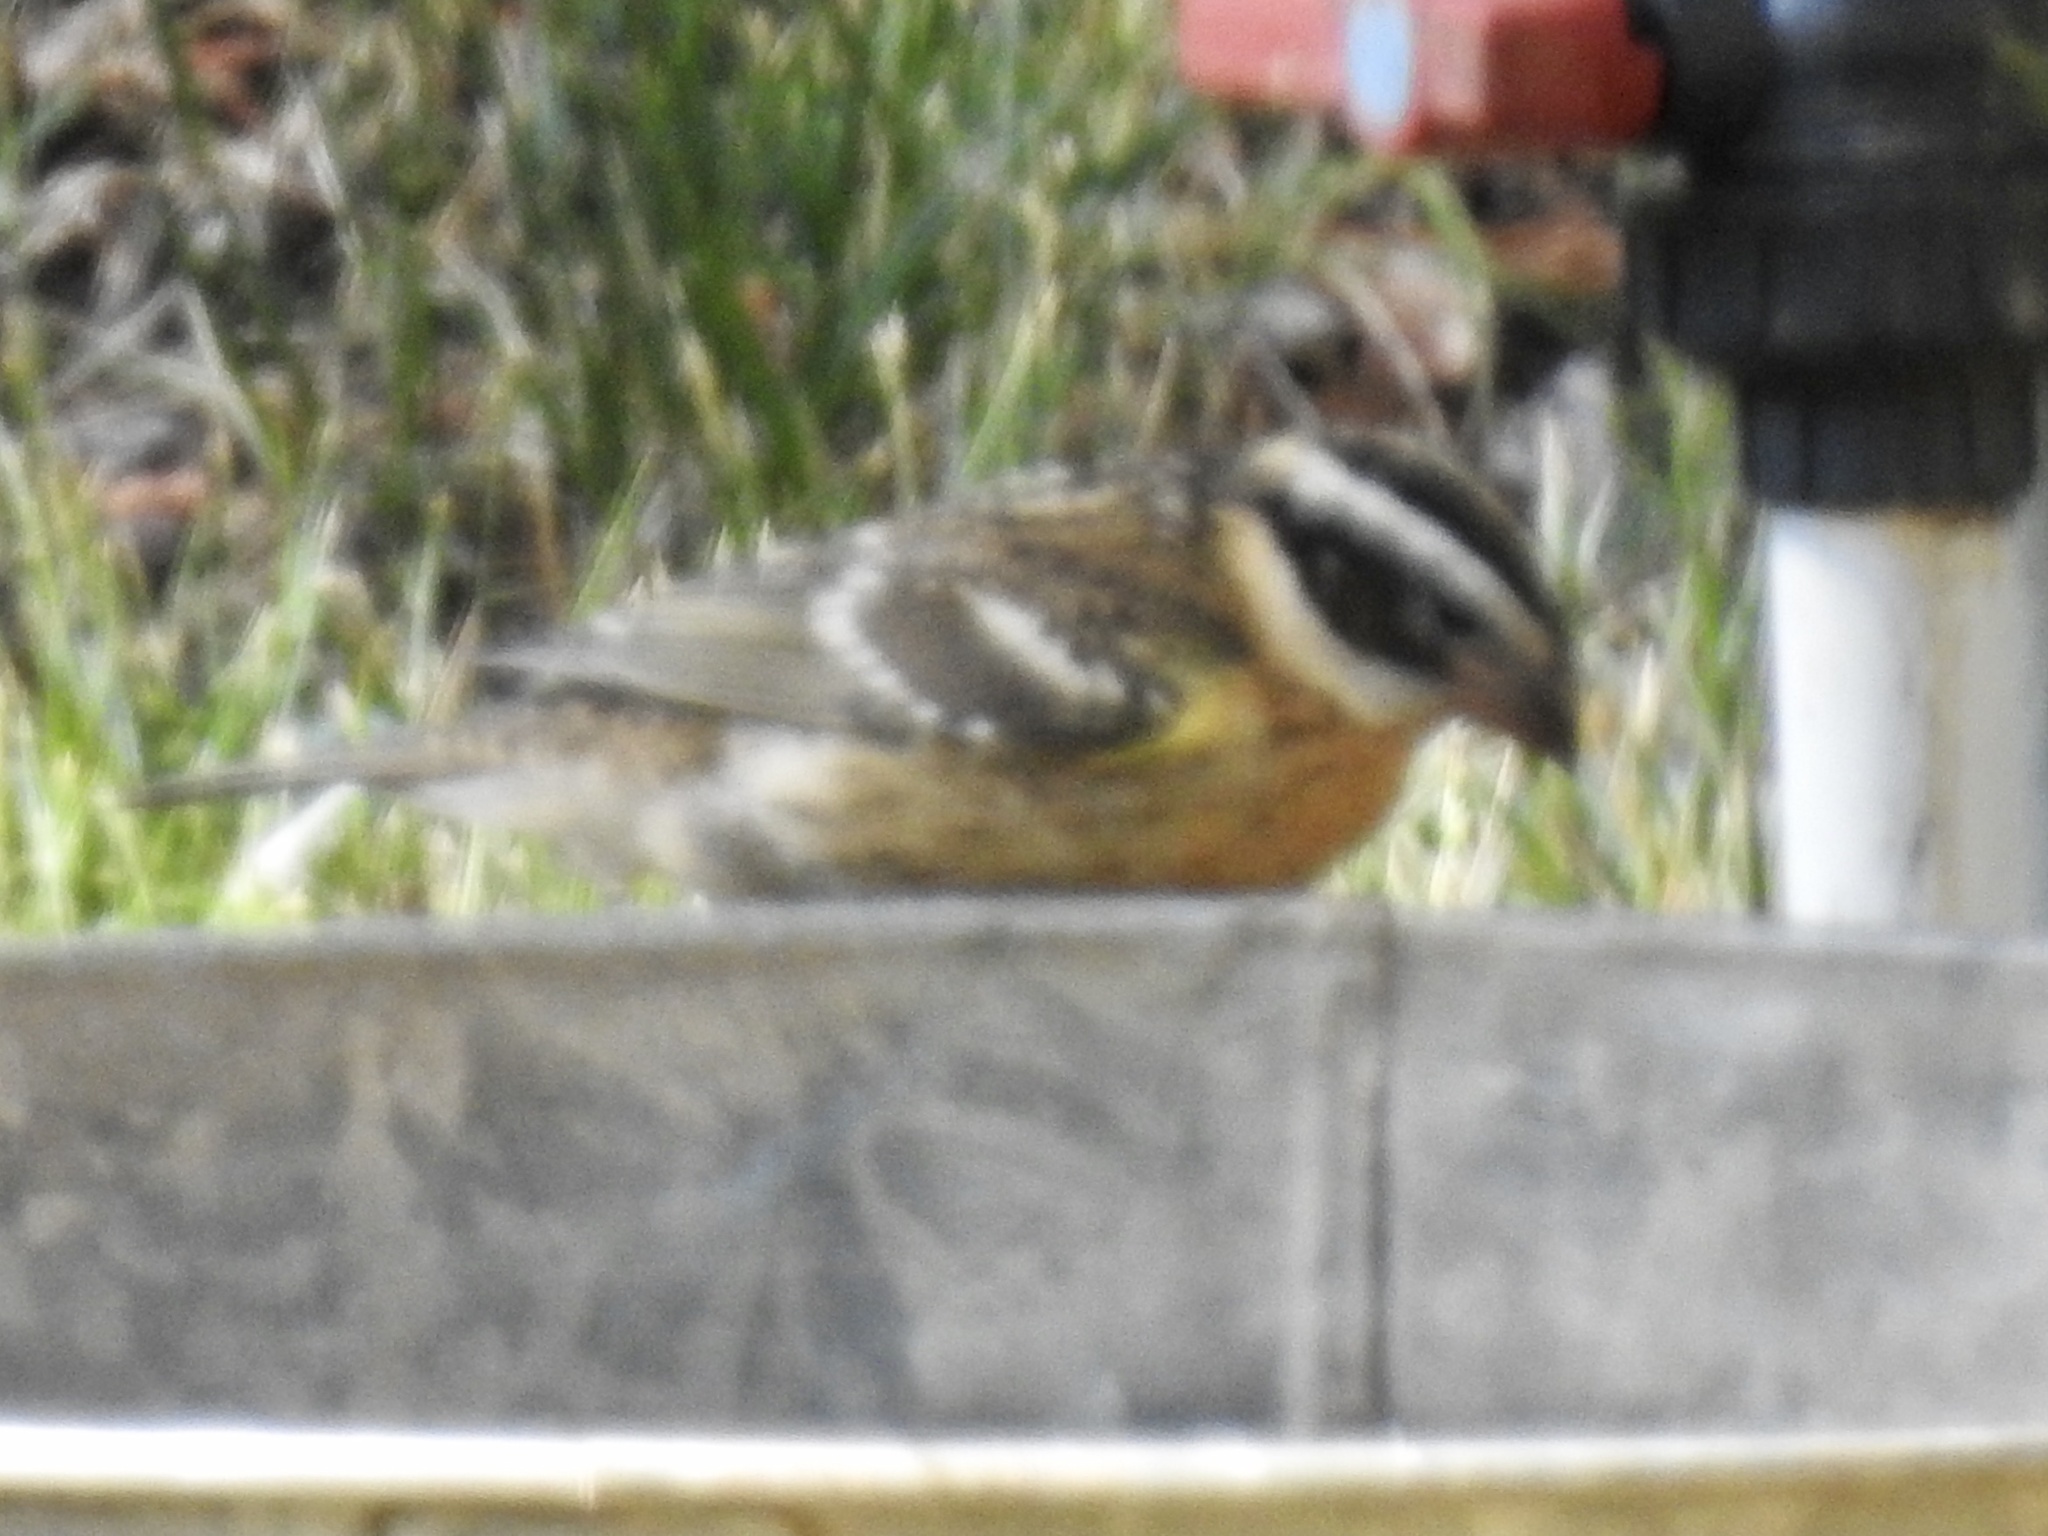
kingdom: Animalia
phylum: Chordata
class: Aves
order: Passeriformes
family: Cardinalidae
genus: Pheucticus
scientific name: Pheucticus melanocephalus
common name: Black-headed grosbeak
